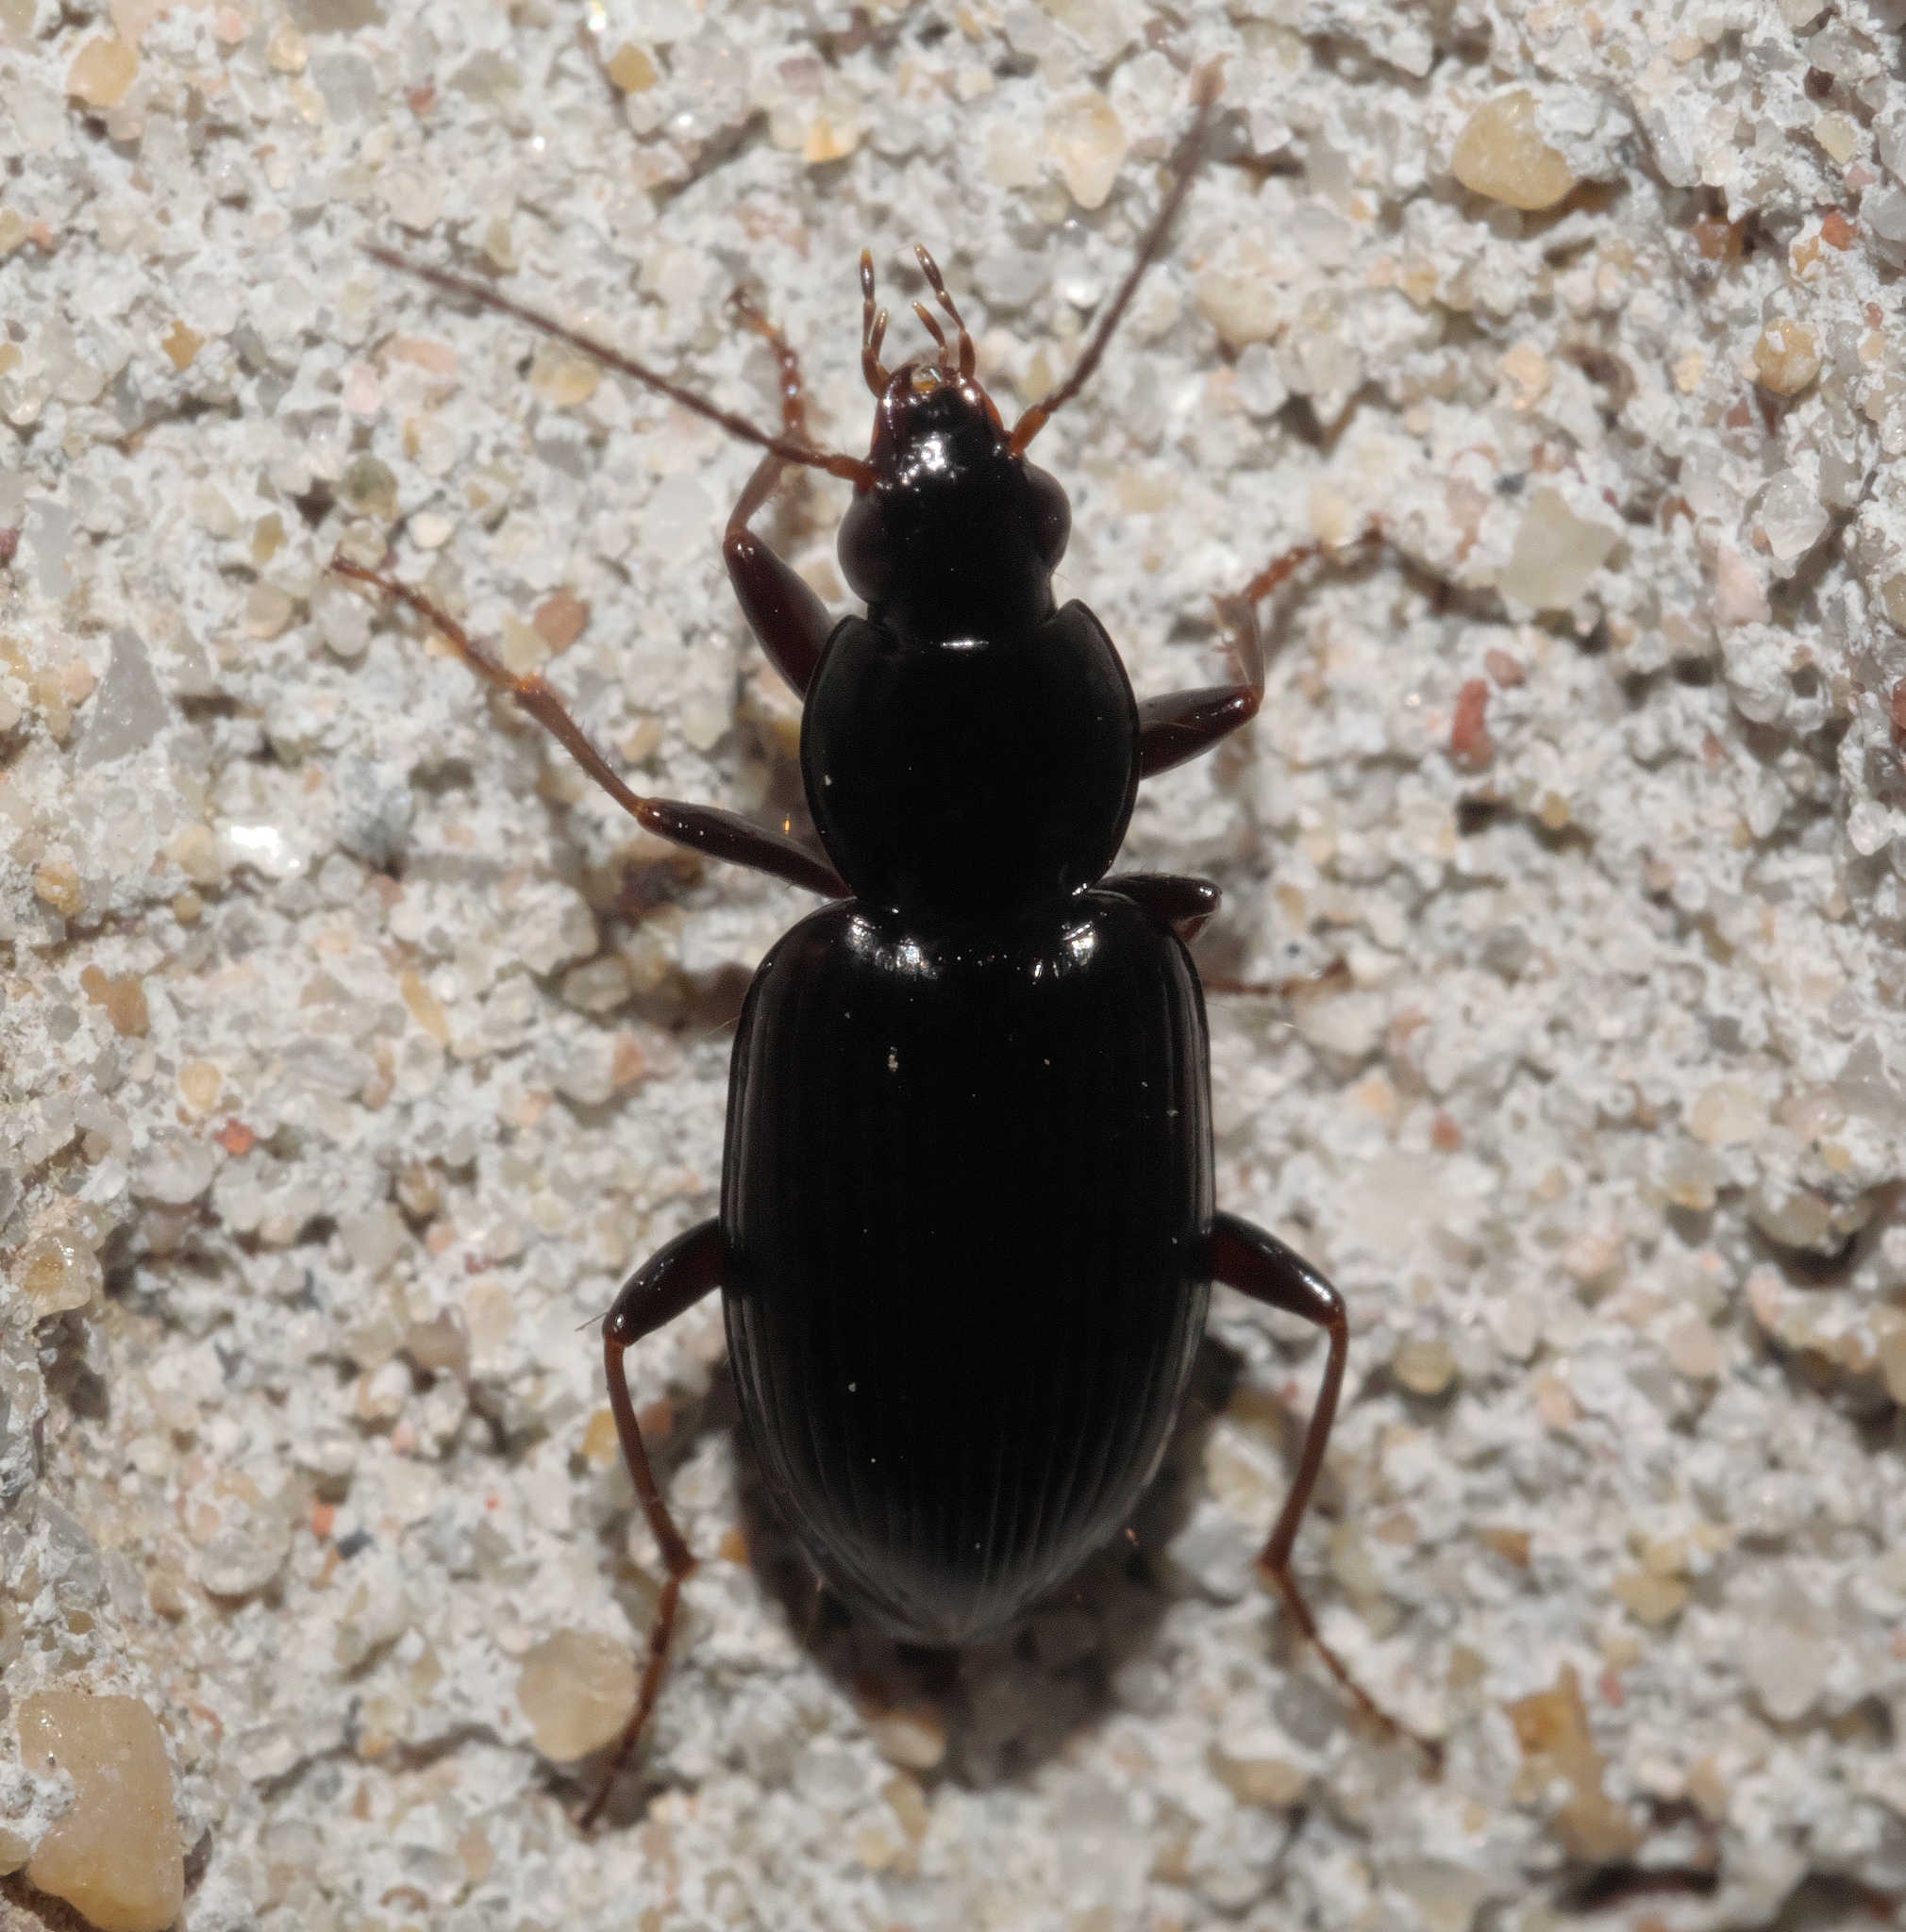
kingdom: Animalia
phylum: Arthropoda
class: Insecta
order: Coleoptera
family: Carabidae
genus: Agonum
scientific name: Agonum punctiforme
